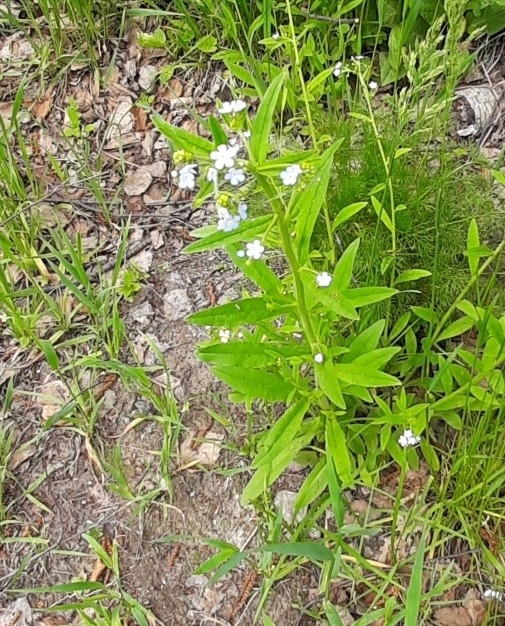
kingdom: Plantae
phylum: Tracheophyta
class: Magnoliopsida
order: Boraginales
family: Boraginaceae
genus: Hackelia
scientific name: Hackelia deflexa
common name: Nodding stickseed
